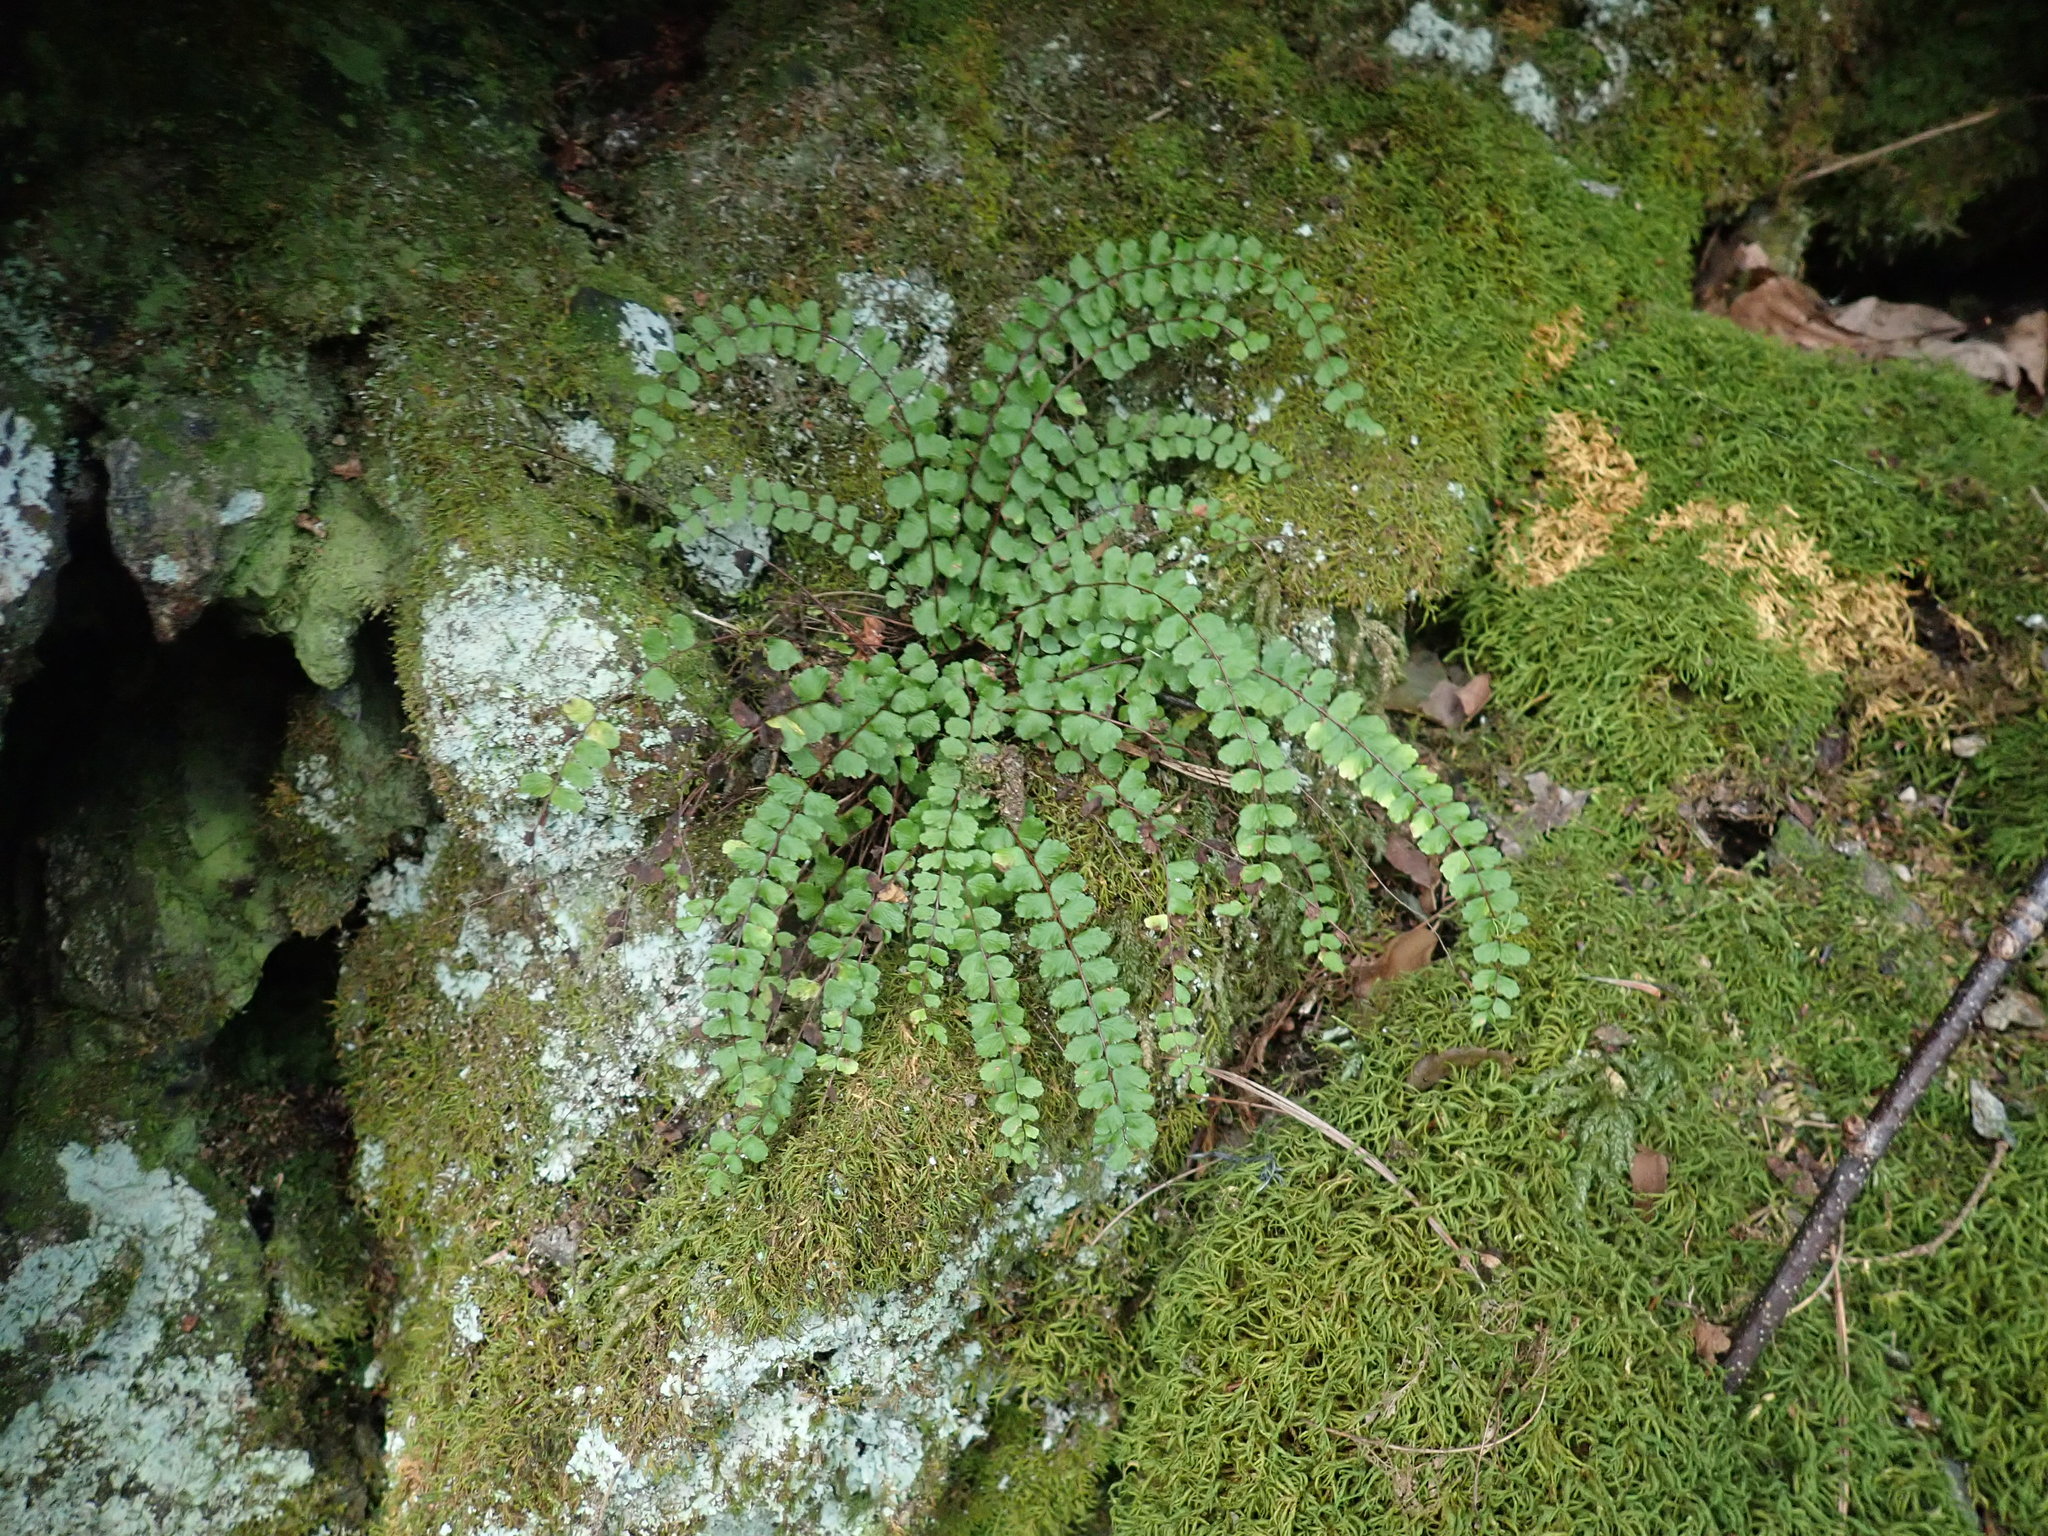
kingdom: Plantae
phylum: Tracheophyta
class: Polypodiopsida
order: Polypodiales
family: Aspleniaceae
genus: Asplenium
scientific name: Asplenium trichomanes
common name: Maidenhair spleenwort
